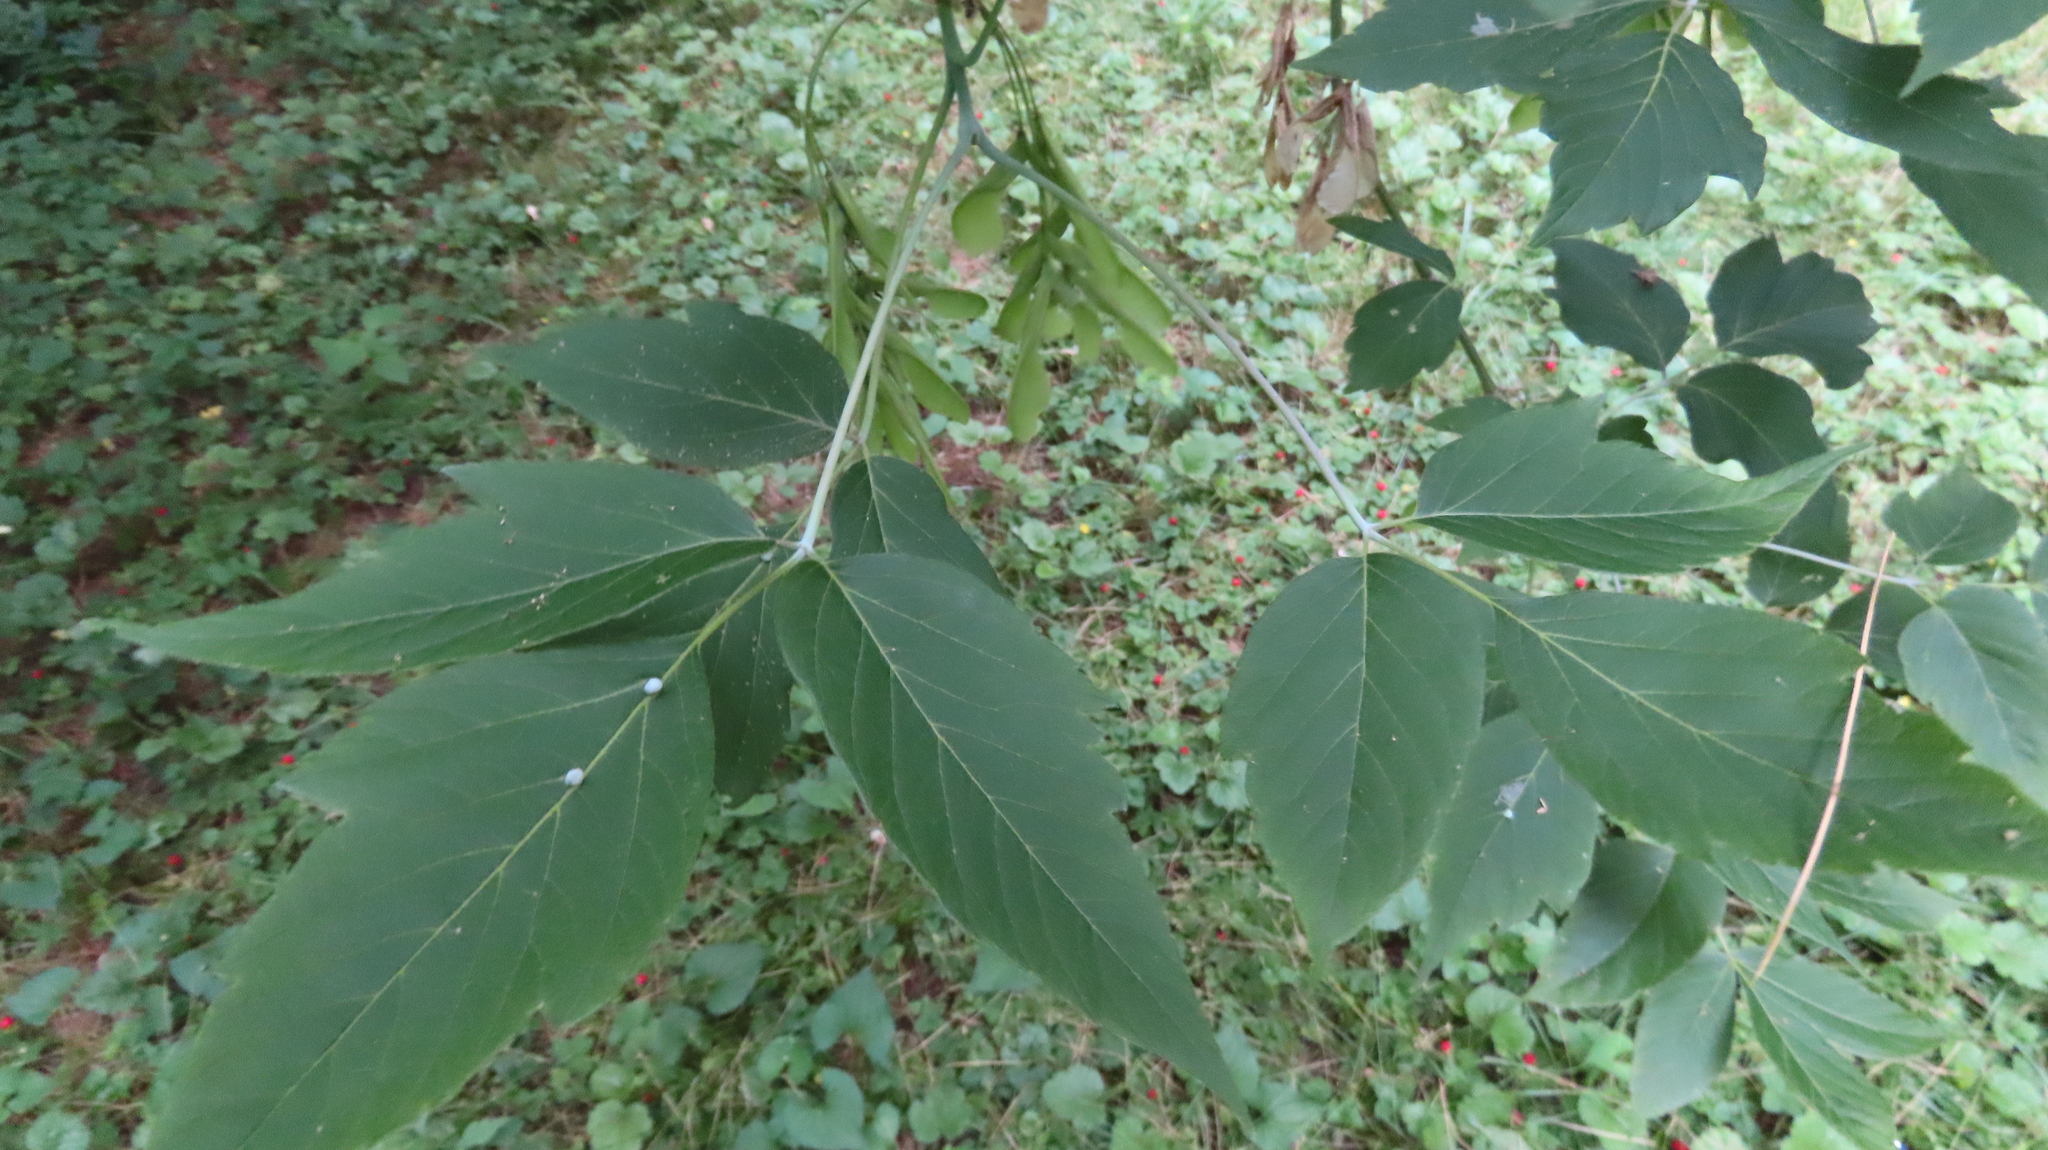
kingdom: Plantae
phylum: Tracheophyta
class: Magnoliopsida
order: Sapindales
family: Sapindaceae
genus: Acer
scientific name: Acer negundo
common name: Ashleaf maple
